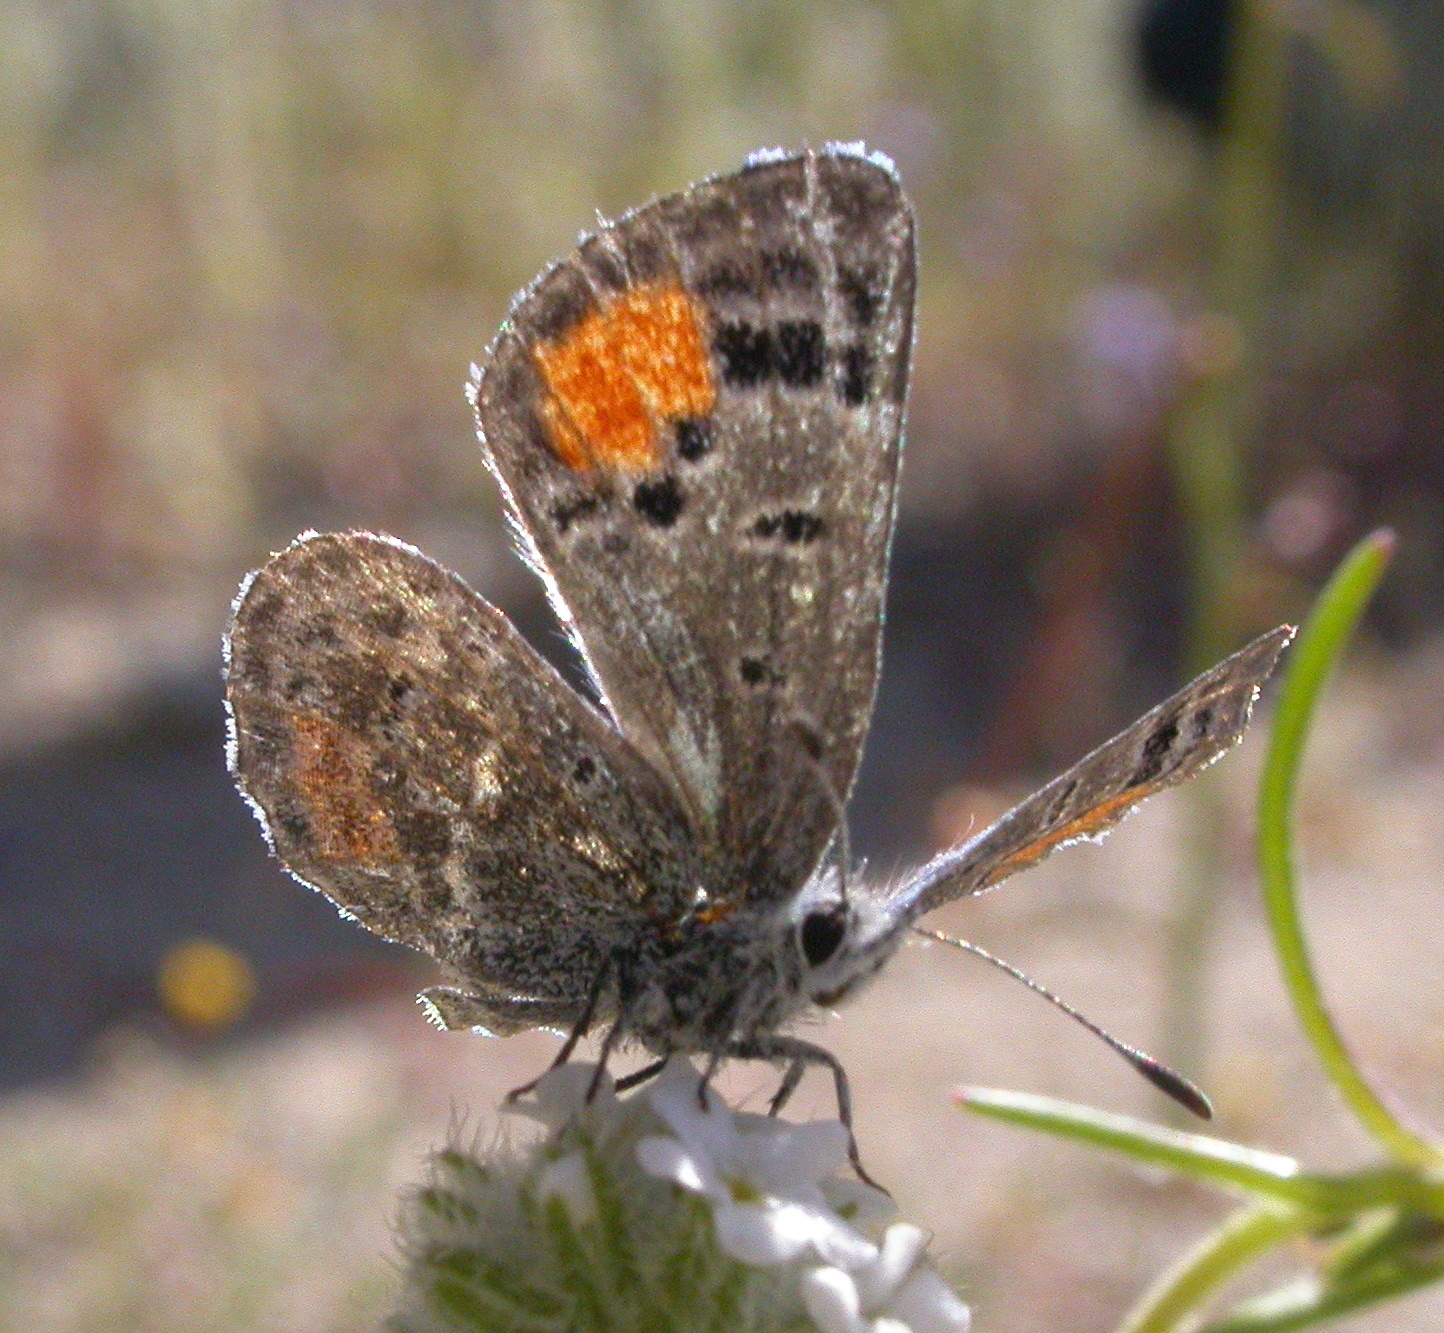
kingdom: Animalia
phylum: Arthropoda
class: Insecta
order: Lepidoptera
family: Lycaenidae
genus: Philotes
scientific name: Philotes sonorensis
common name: Sonoran blue
